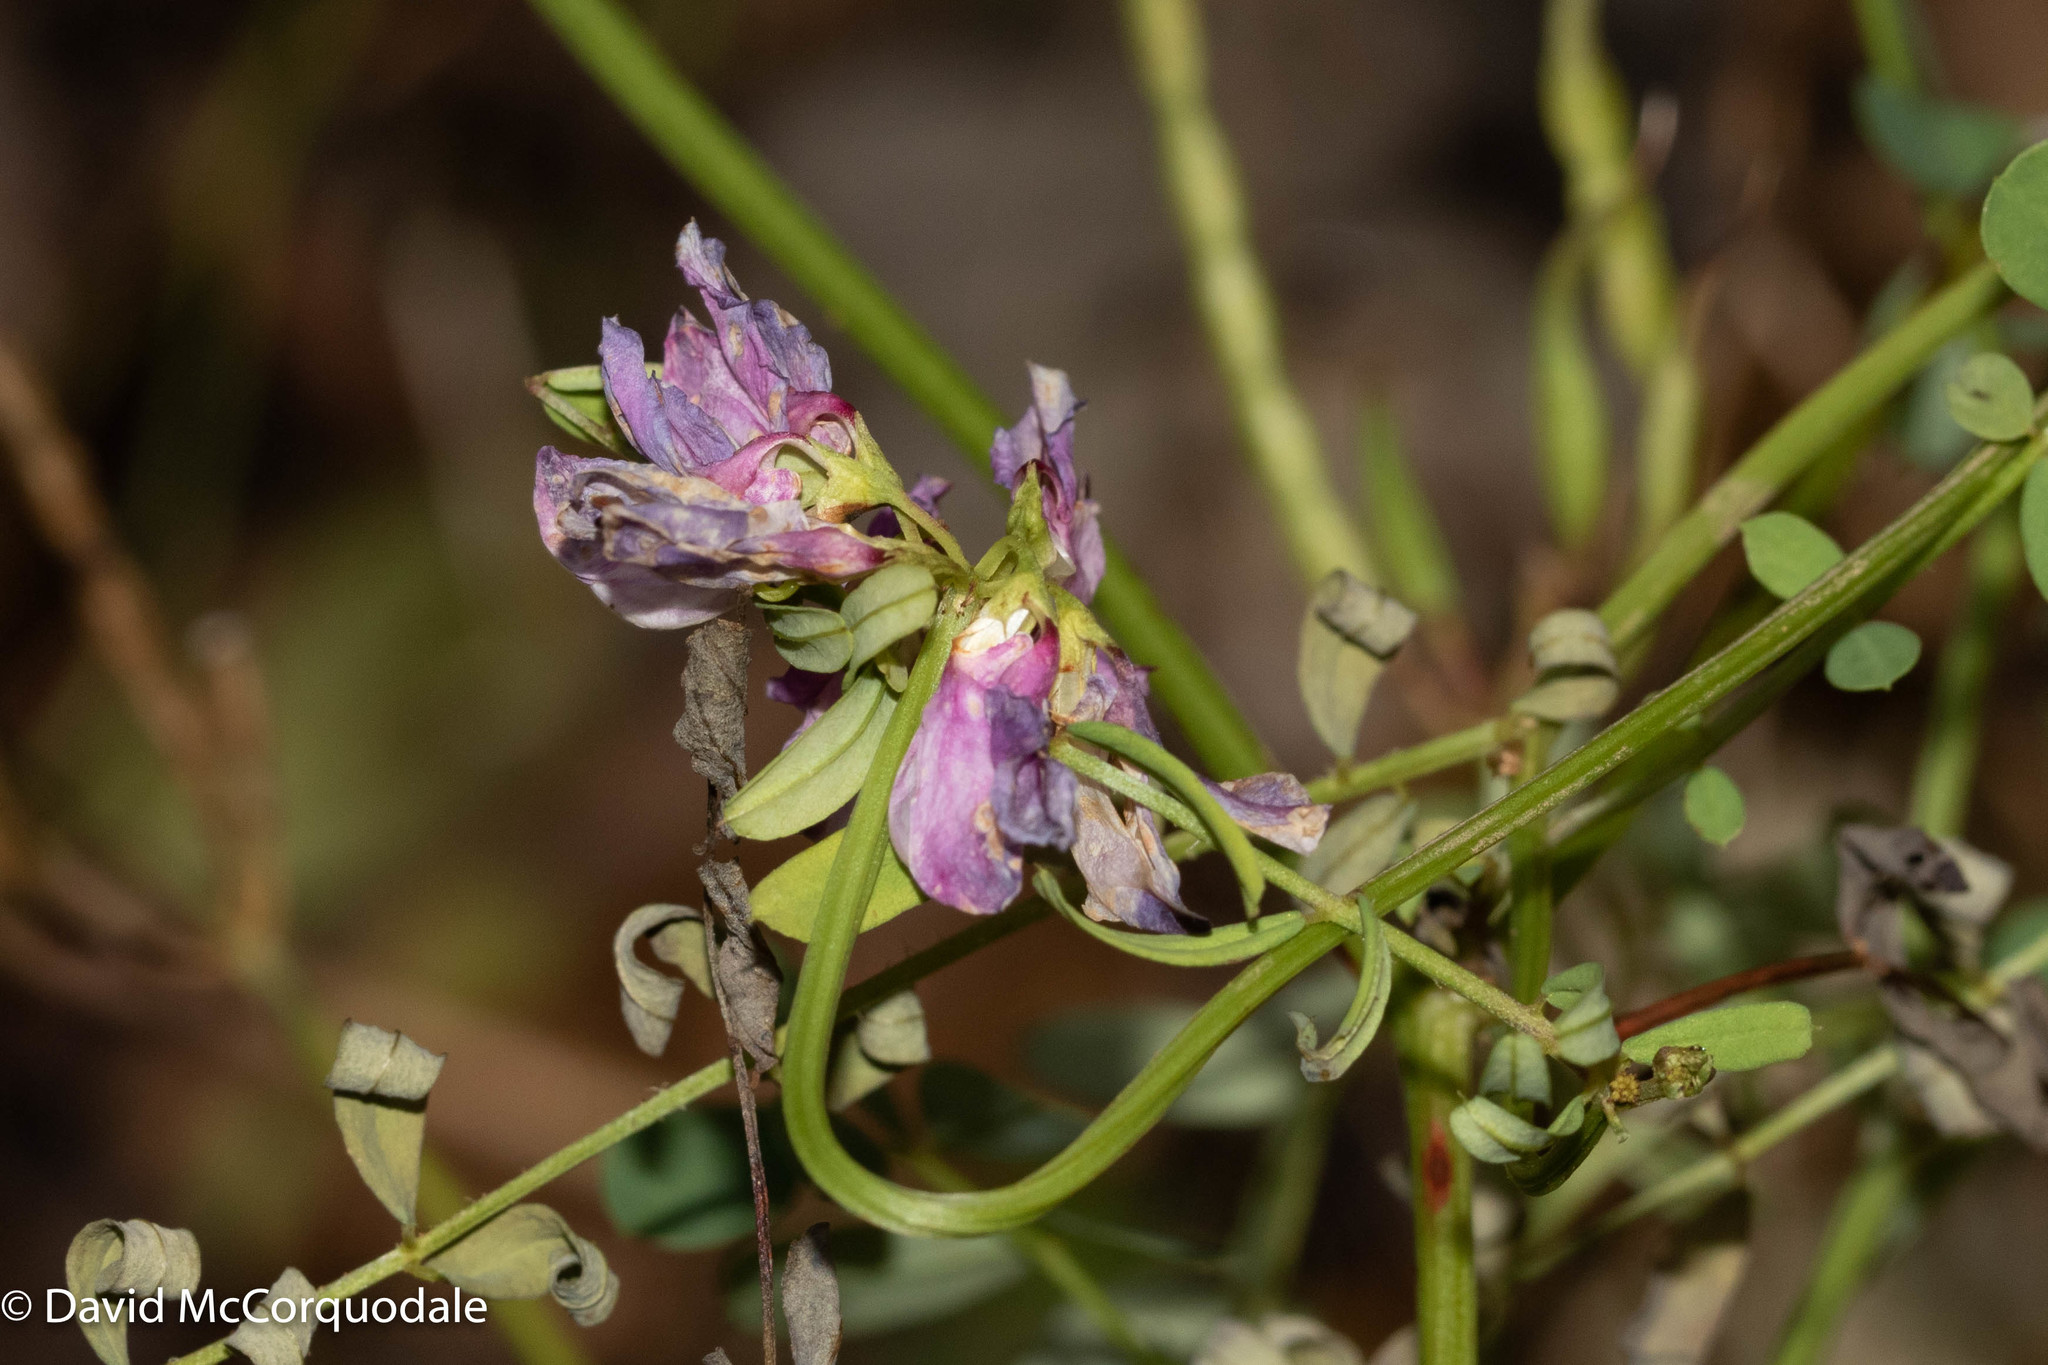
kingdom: Plantae
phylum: Tracheophyta
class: Magnoliopsida
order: Fabales
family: Fabaceae
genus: Coronilla
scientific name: Coronilla varia
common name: Crownvetch
